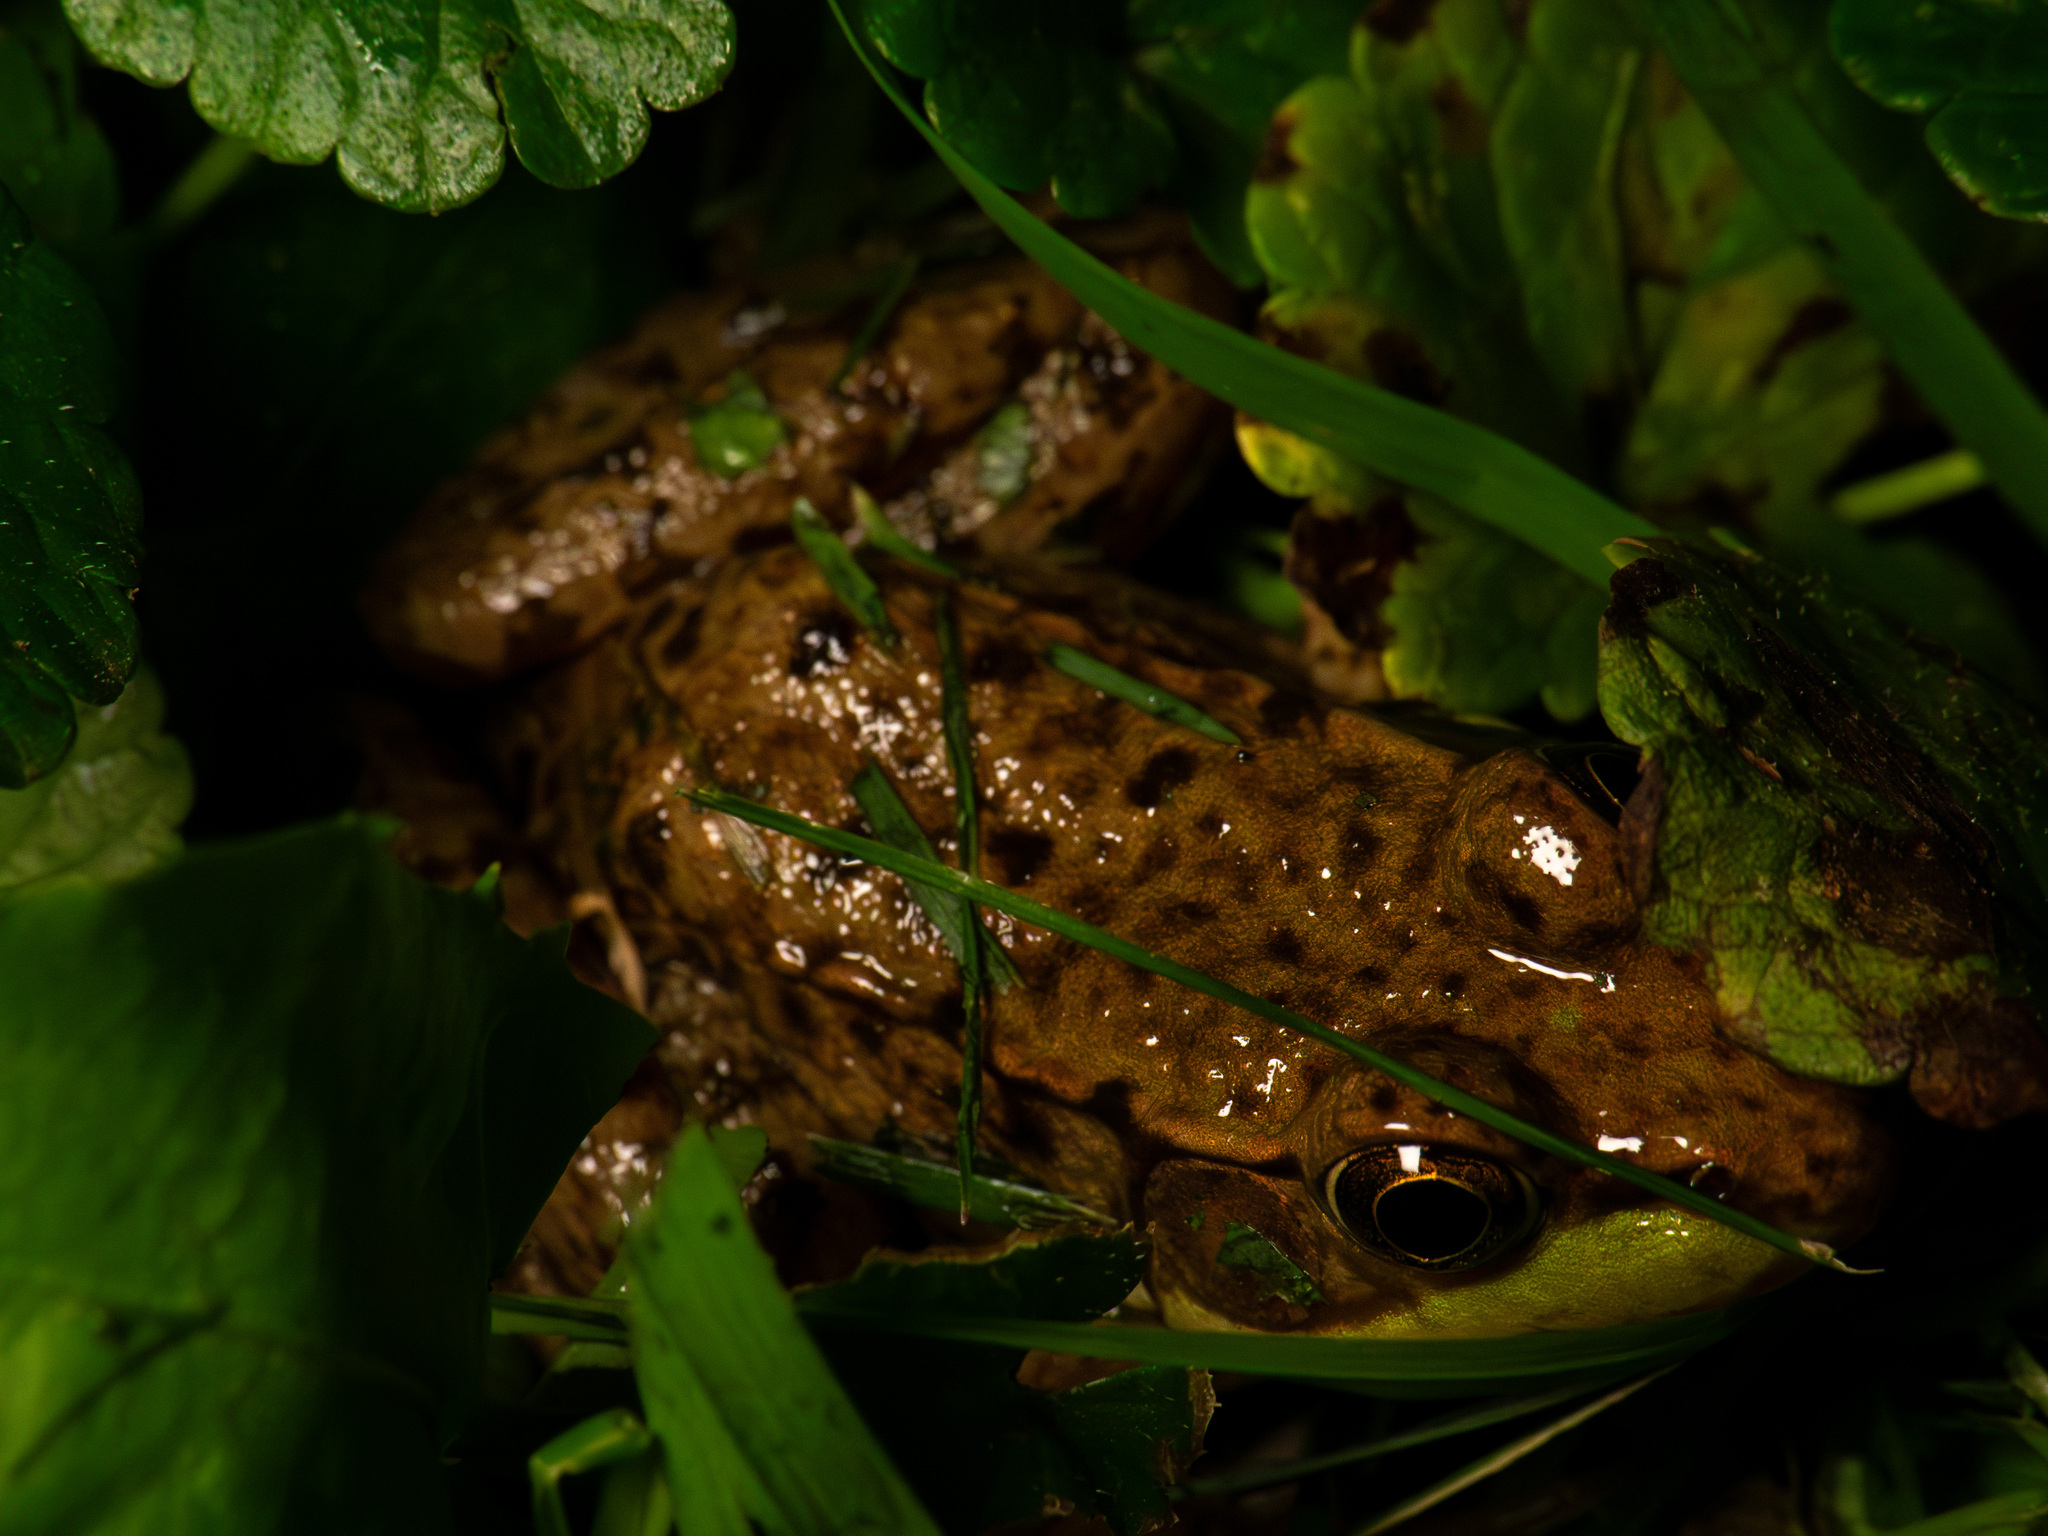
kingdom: Animalia
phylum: Chordata
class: Amphibia
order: Anura
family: Ranidae
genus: Lithobates
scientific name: Lithobates clamitans
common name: Green frog
